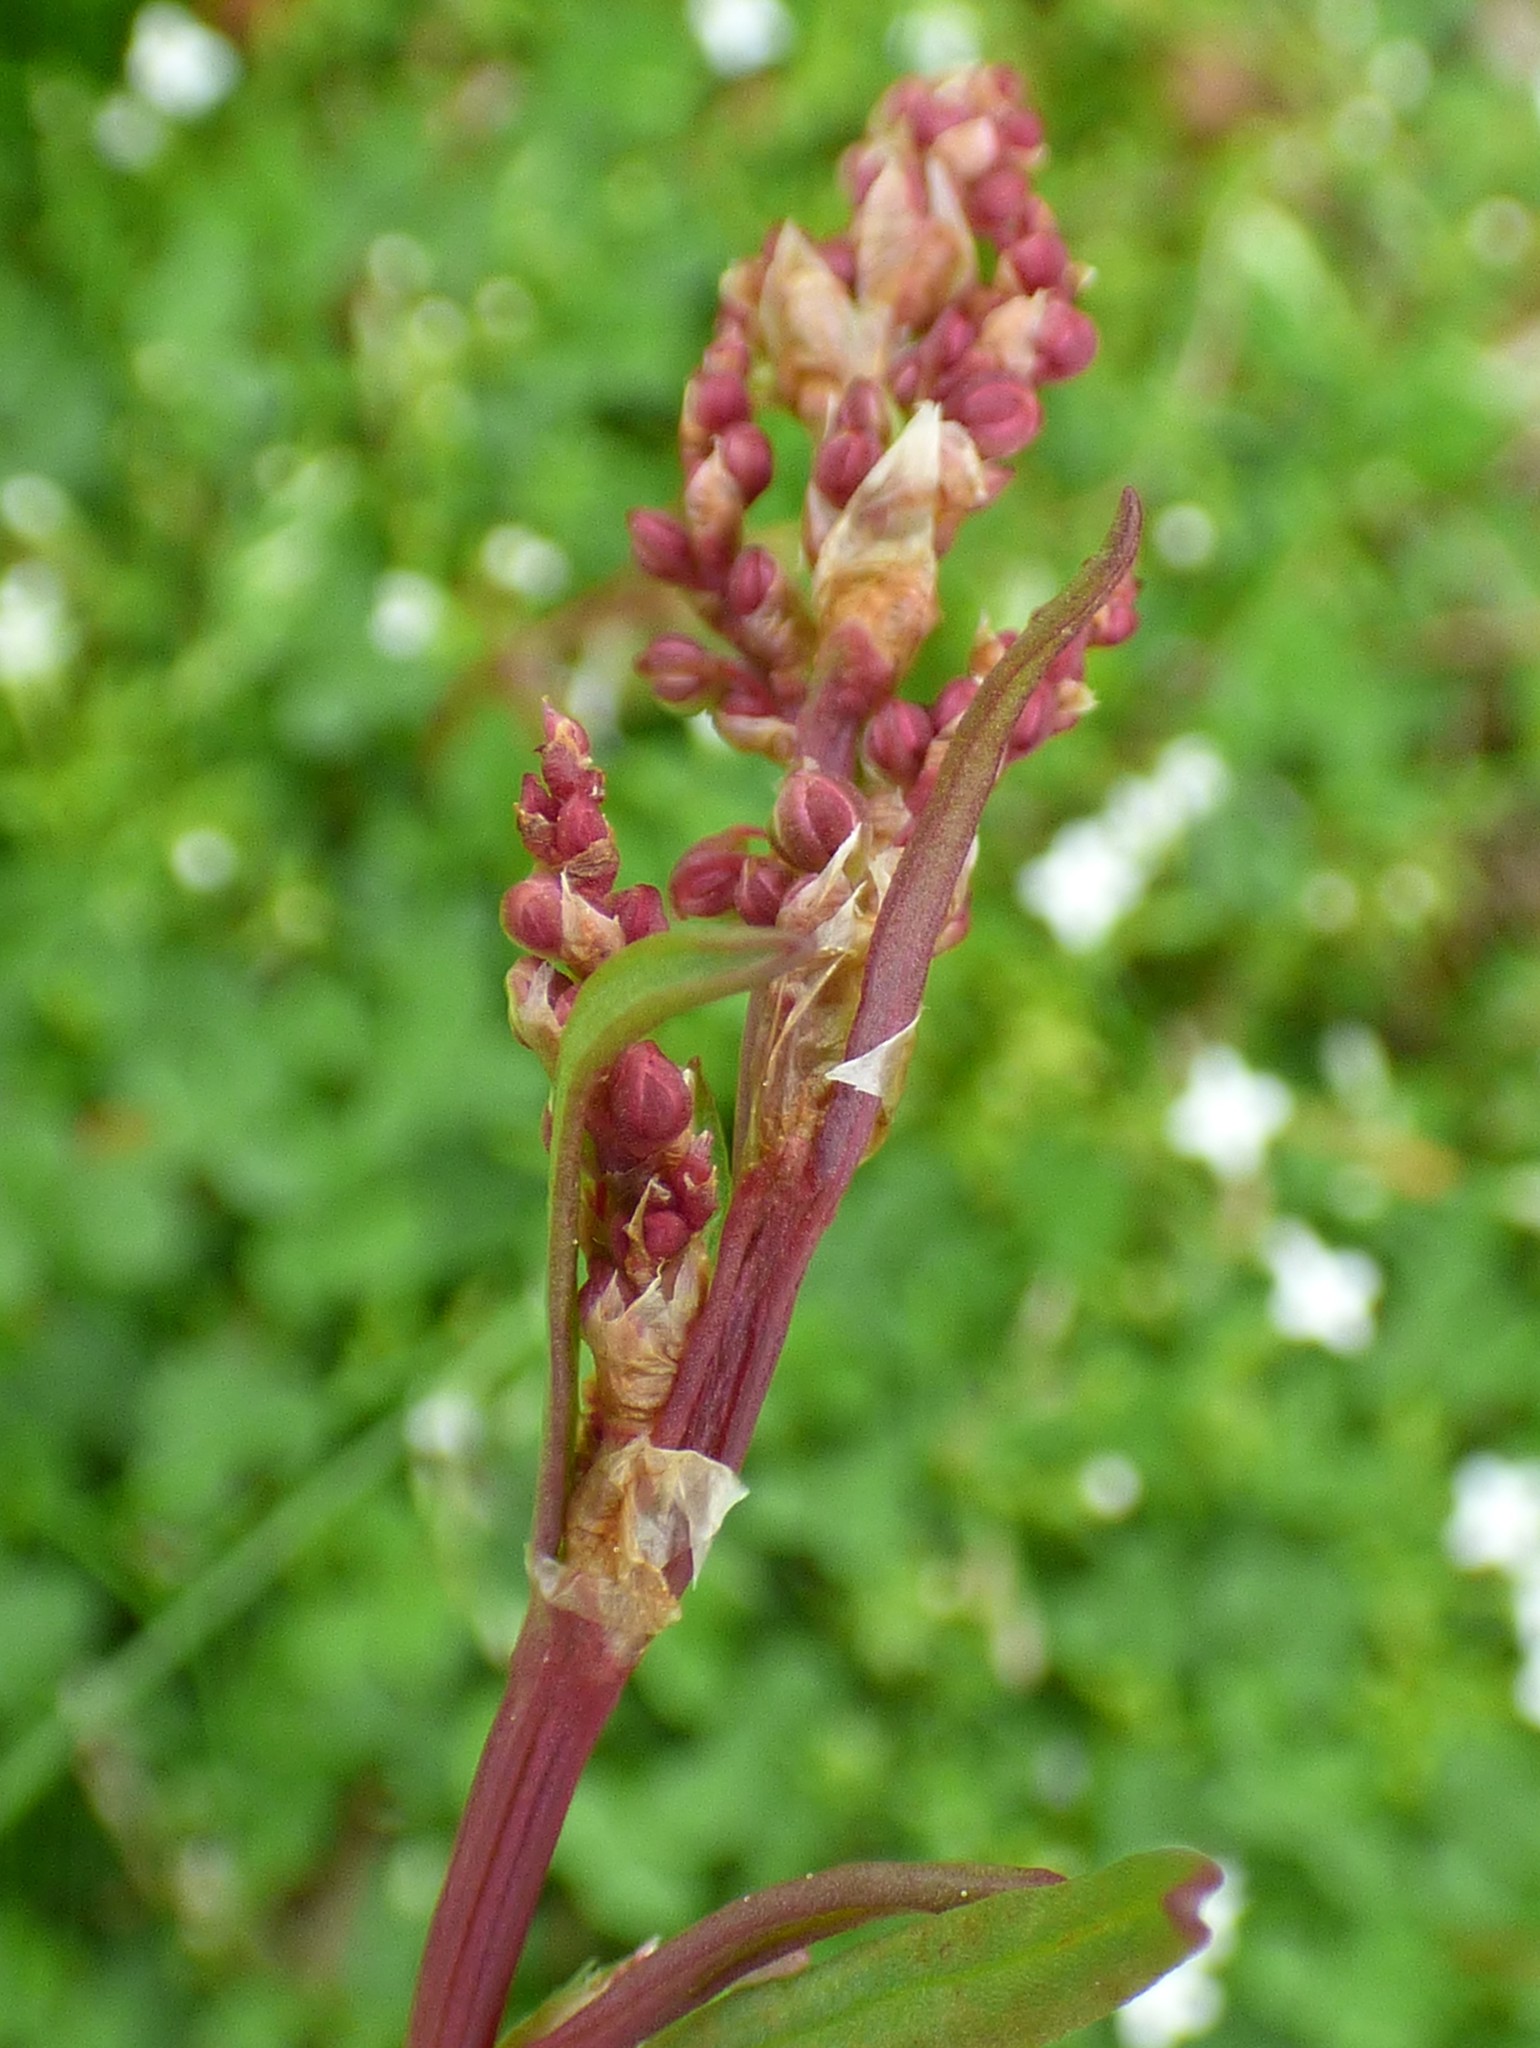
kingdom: Plantae
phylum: Tracheophyta
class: Magnoliopsida
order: Caryophyllales
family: Polygonaceae
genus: Rumex
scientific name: Rumex acetosella
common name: Common sheep sorrel
